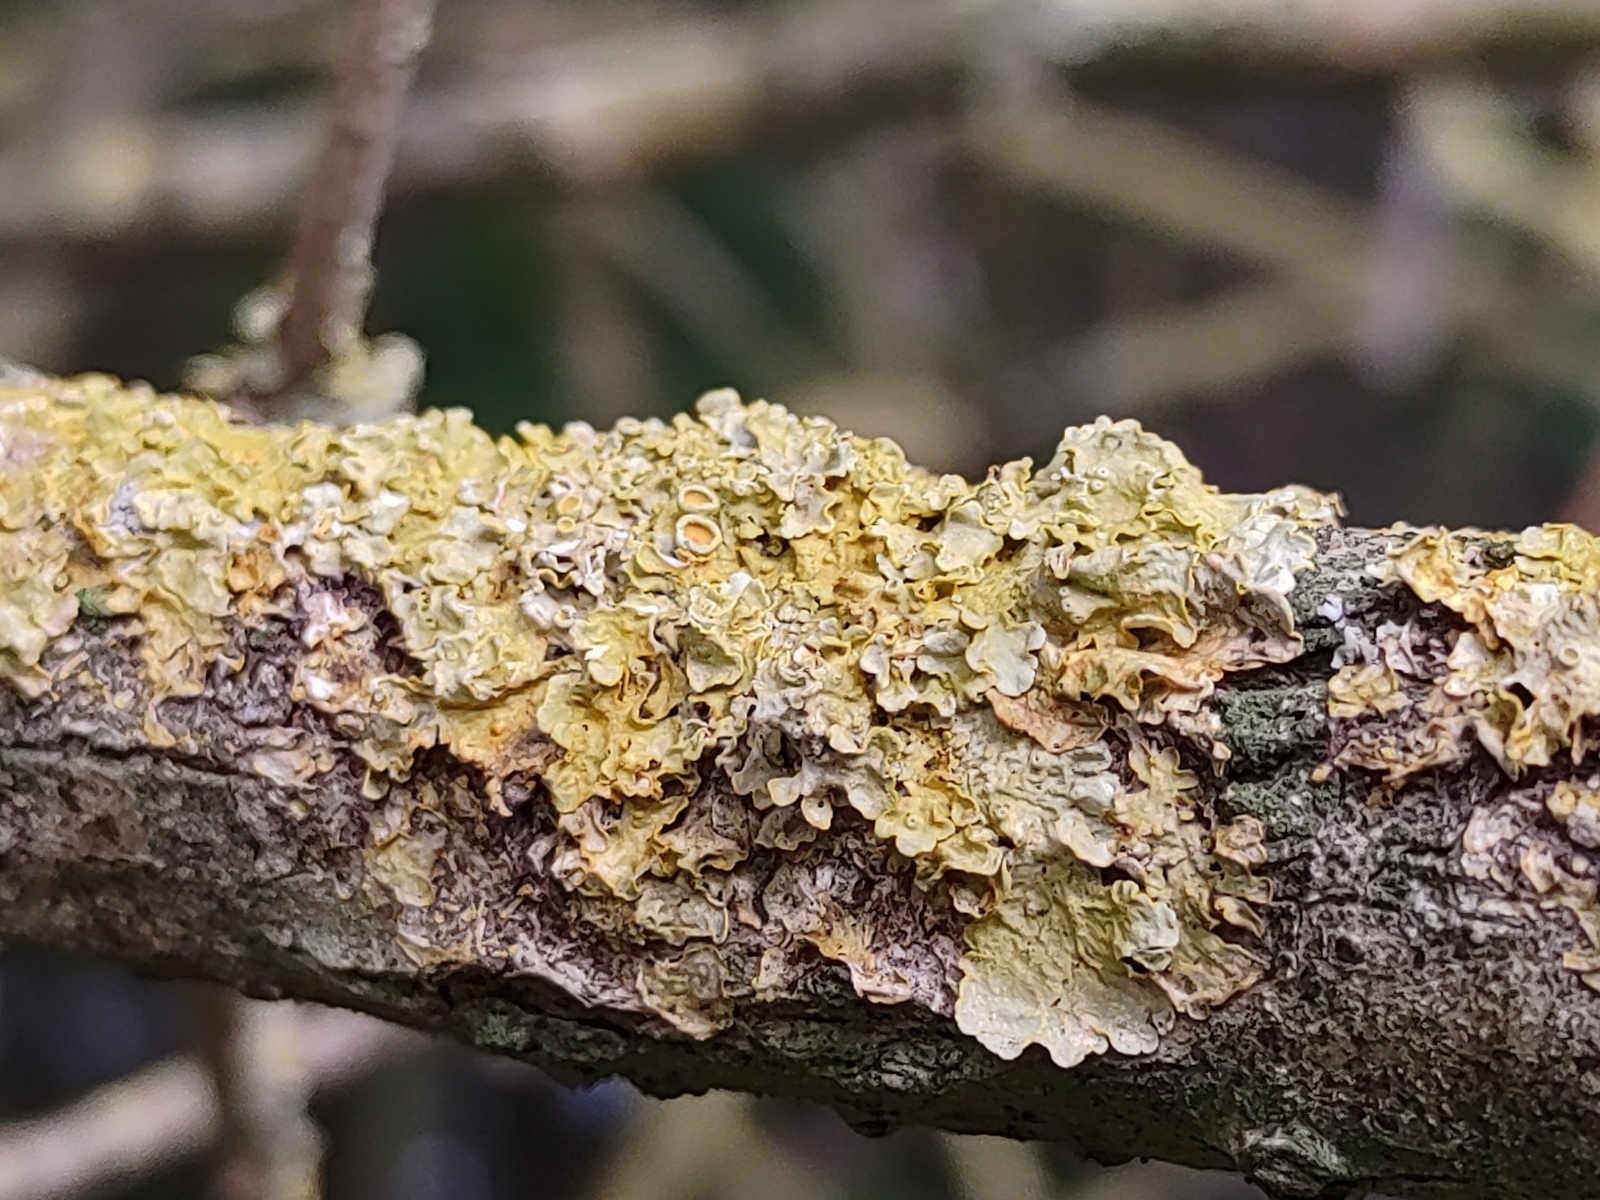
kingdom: Fungi
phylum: Ascomycota
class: Lecanoromycetes
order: Teloschistales
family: Teloschistaceae
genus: Xanthoria
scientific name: Xanthoria parietina
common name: Common orange lichen
